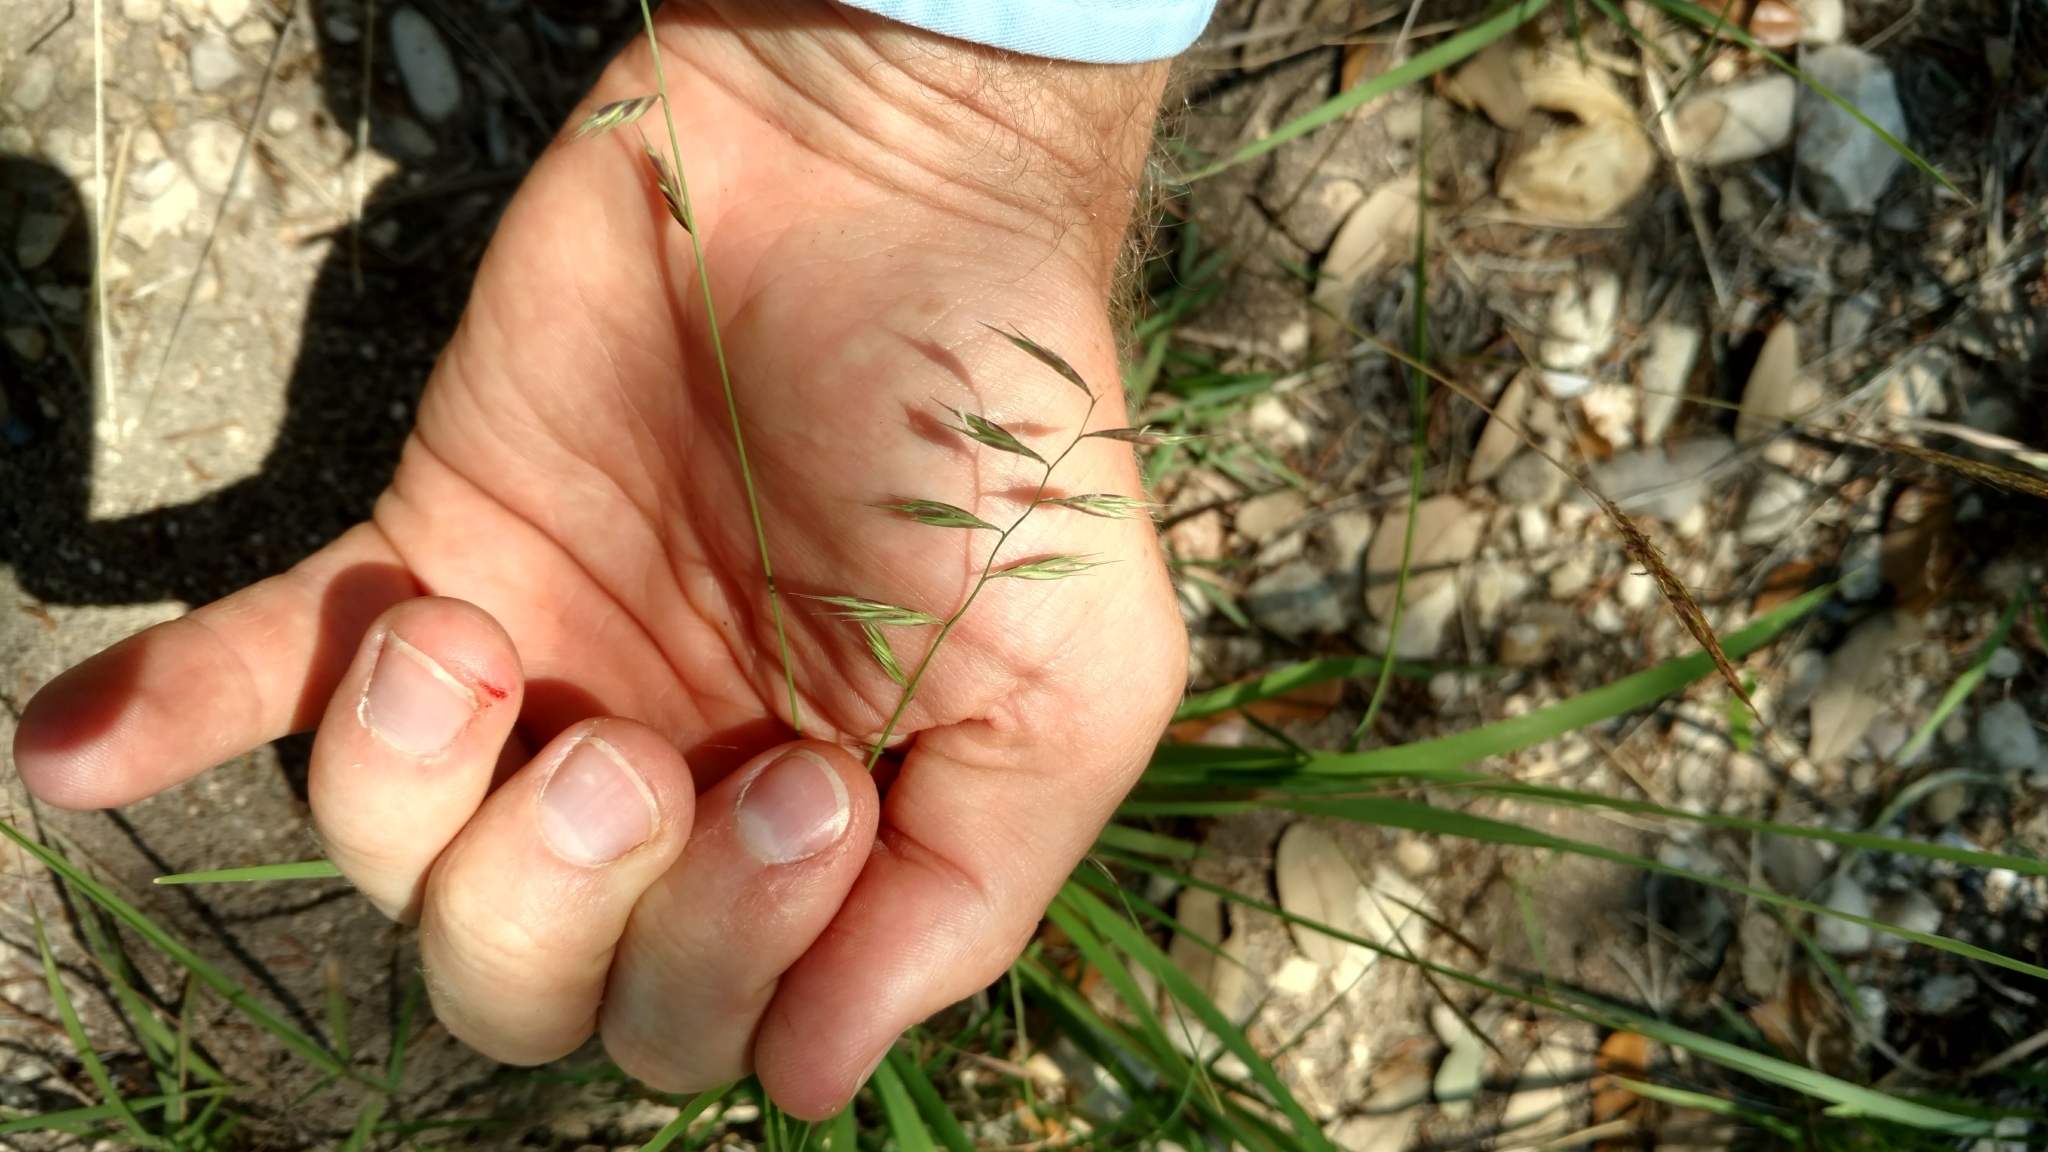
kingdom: Plantae
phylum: Tracheophyta
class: Liliopsida
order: Poales
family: Poaceae
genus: Bouteloua
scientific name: Bouteloua repens
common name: Slender grama
